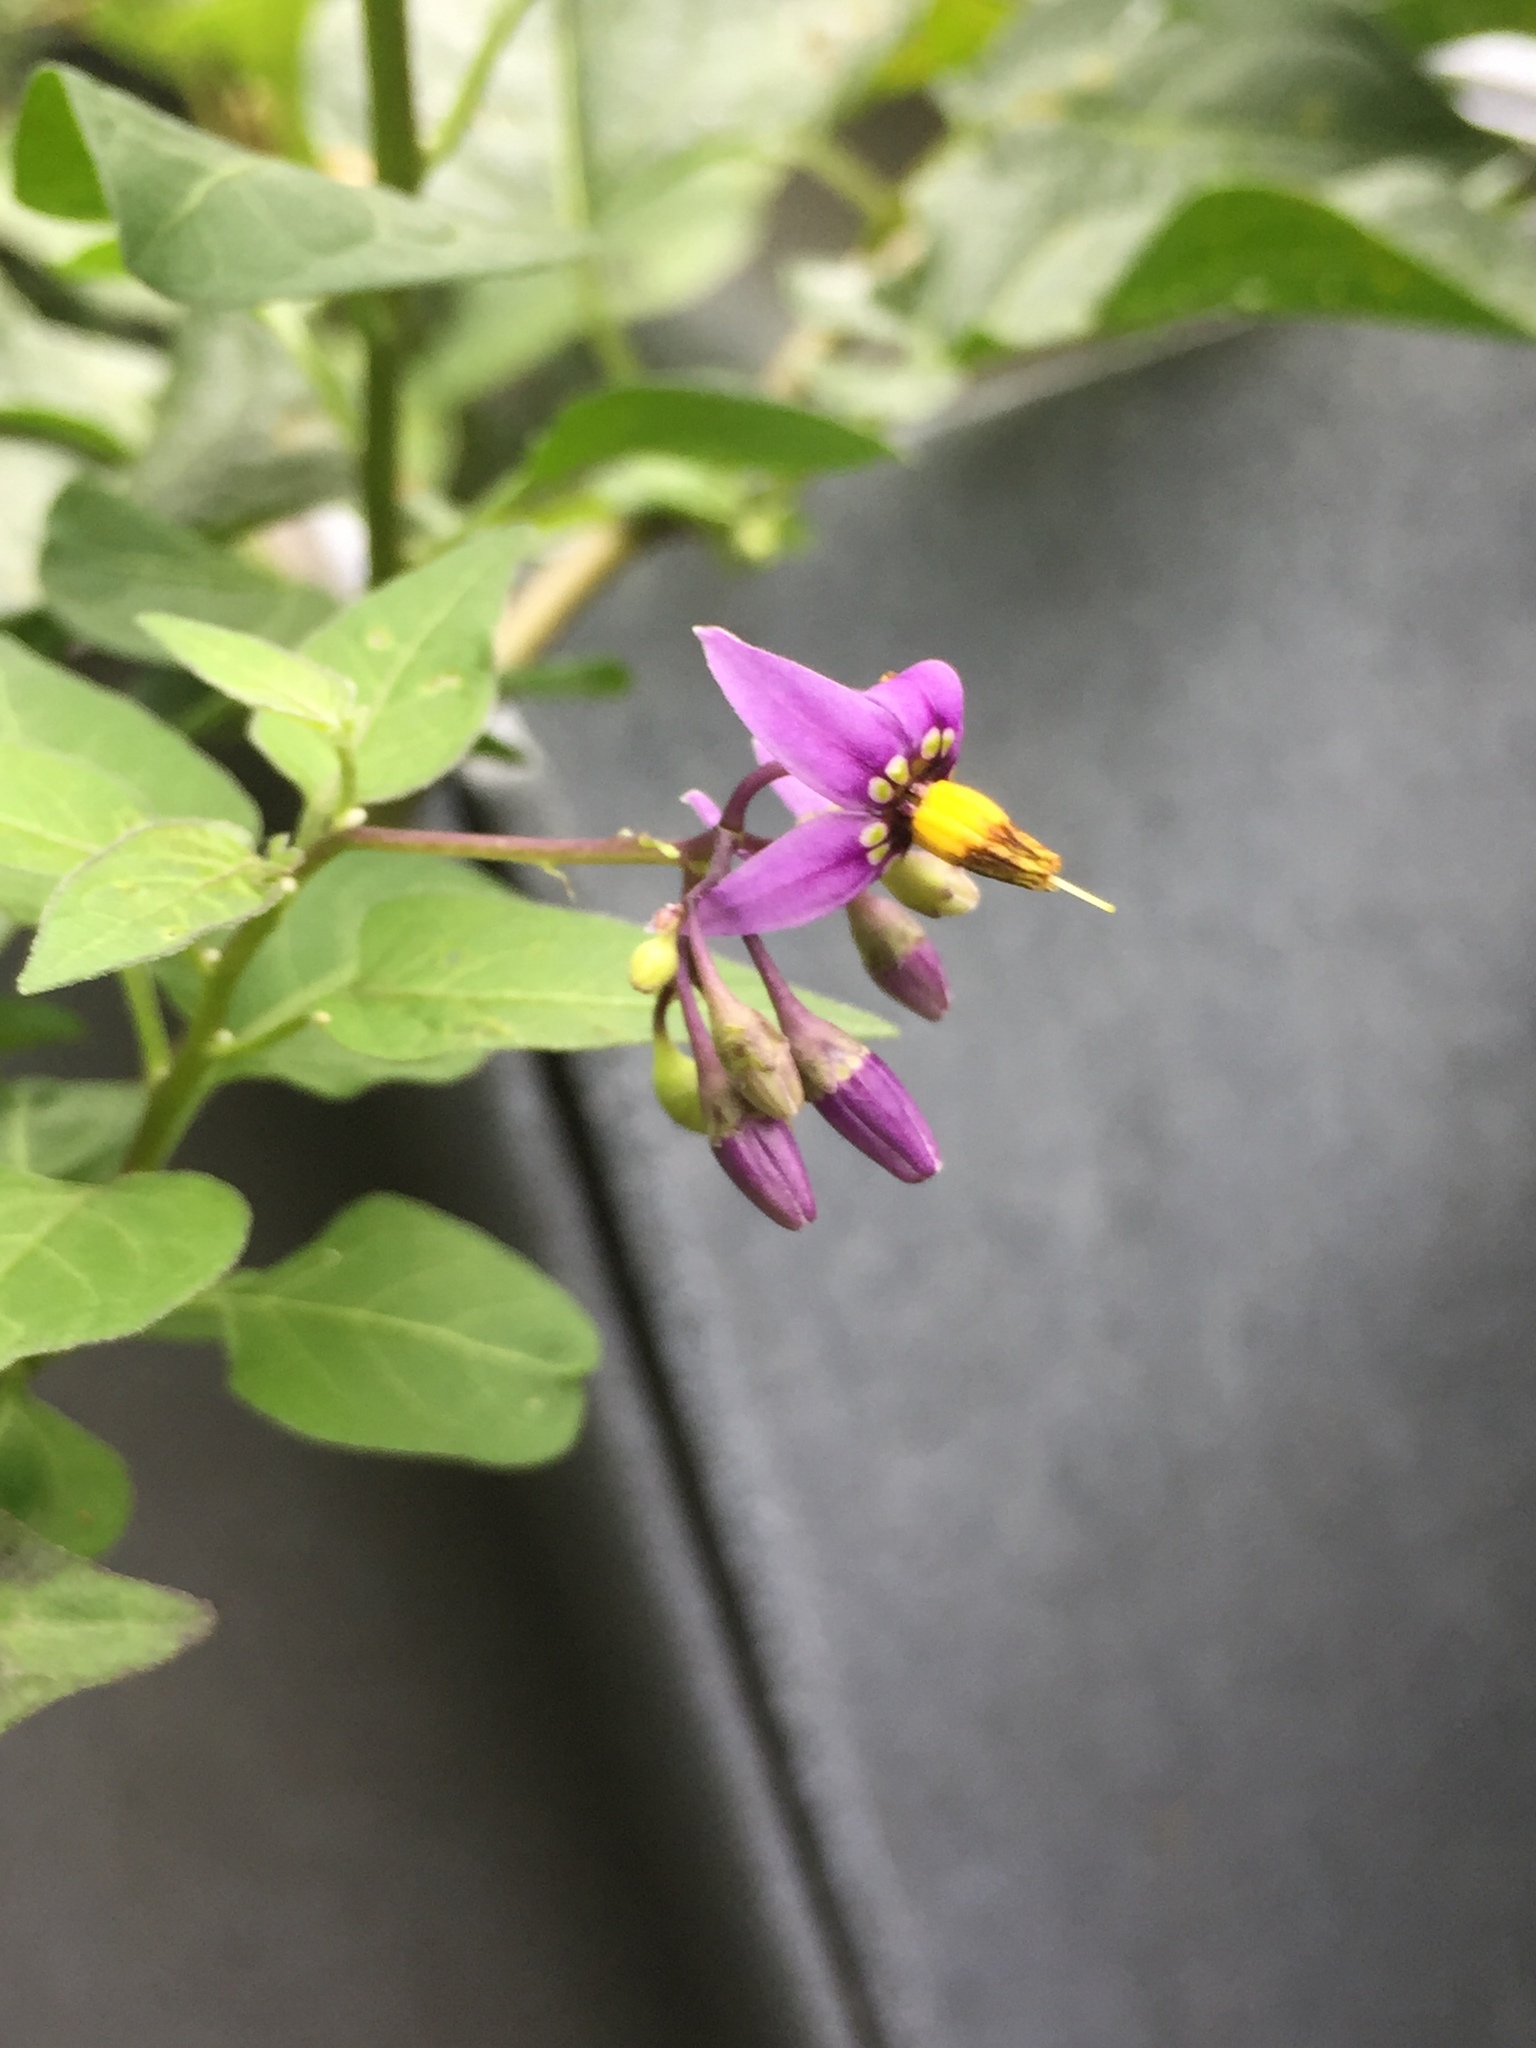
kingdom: Plantae
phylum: Tracheophyta
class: Magnoliopsida
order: Solanales
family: Solanaceae
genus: Solanum
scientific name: Solanum dulcamara
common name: Climbing nightshade
